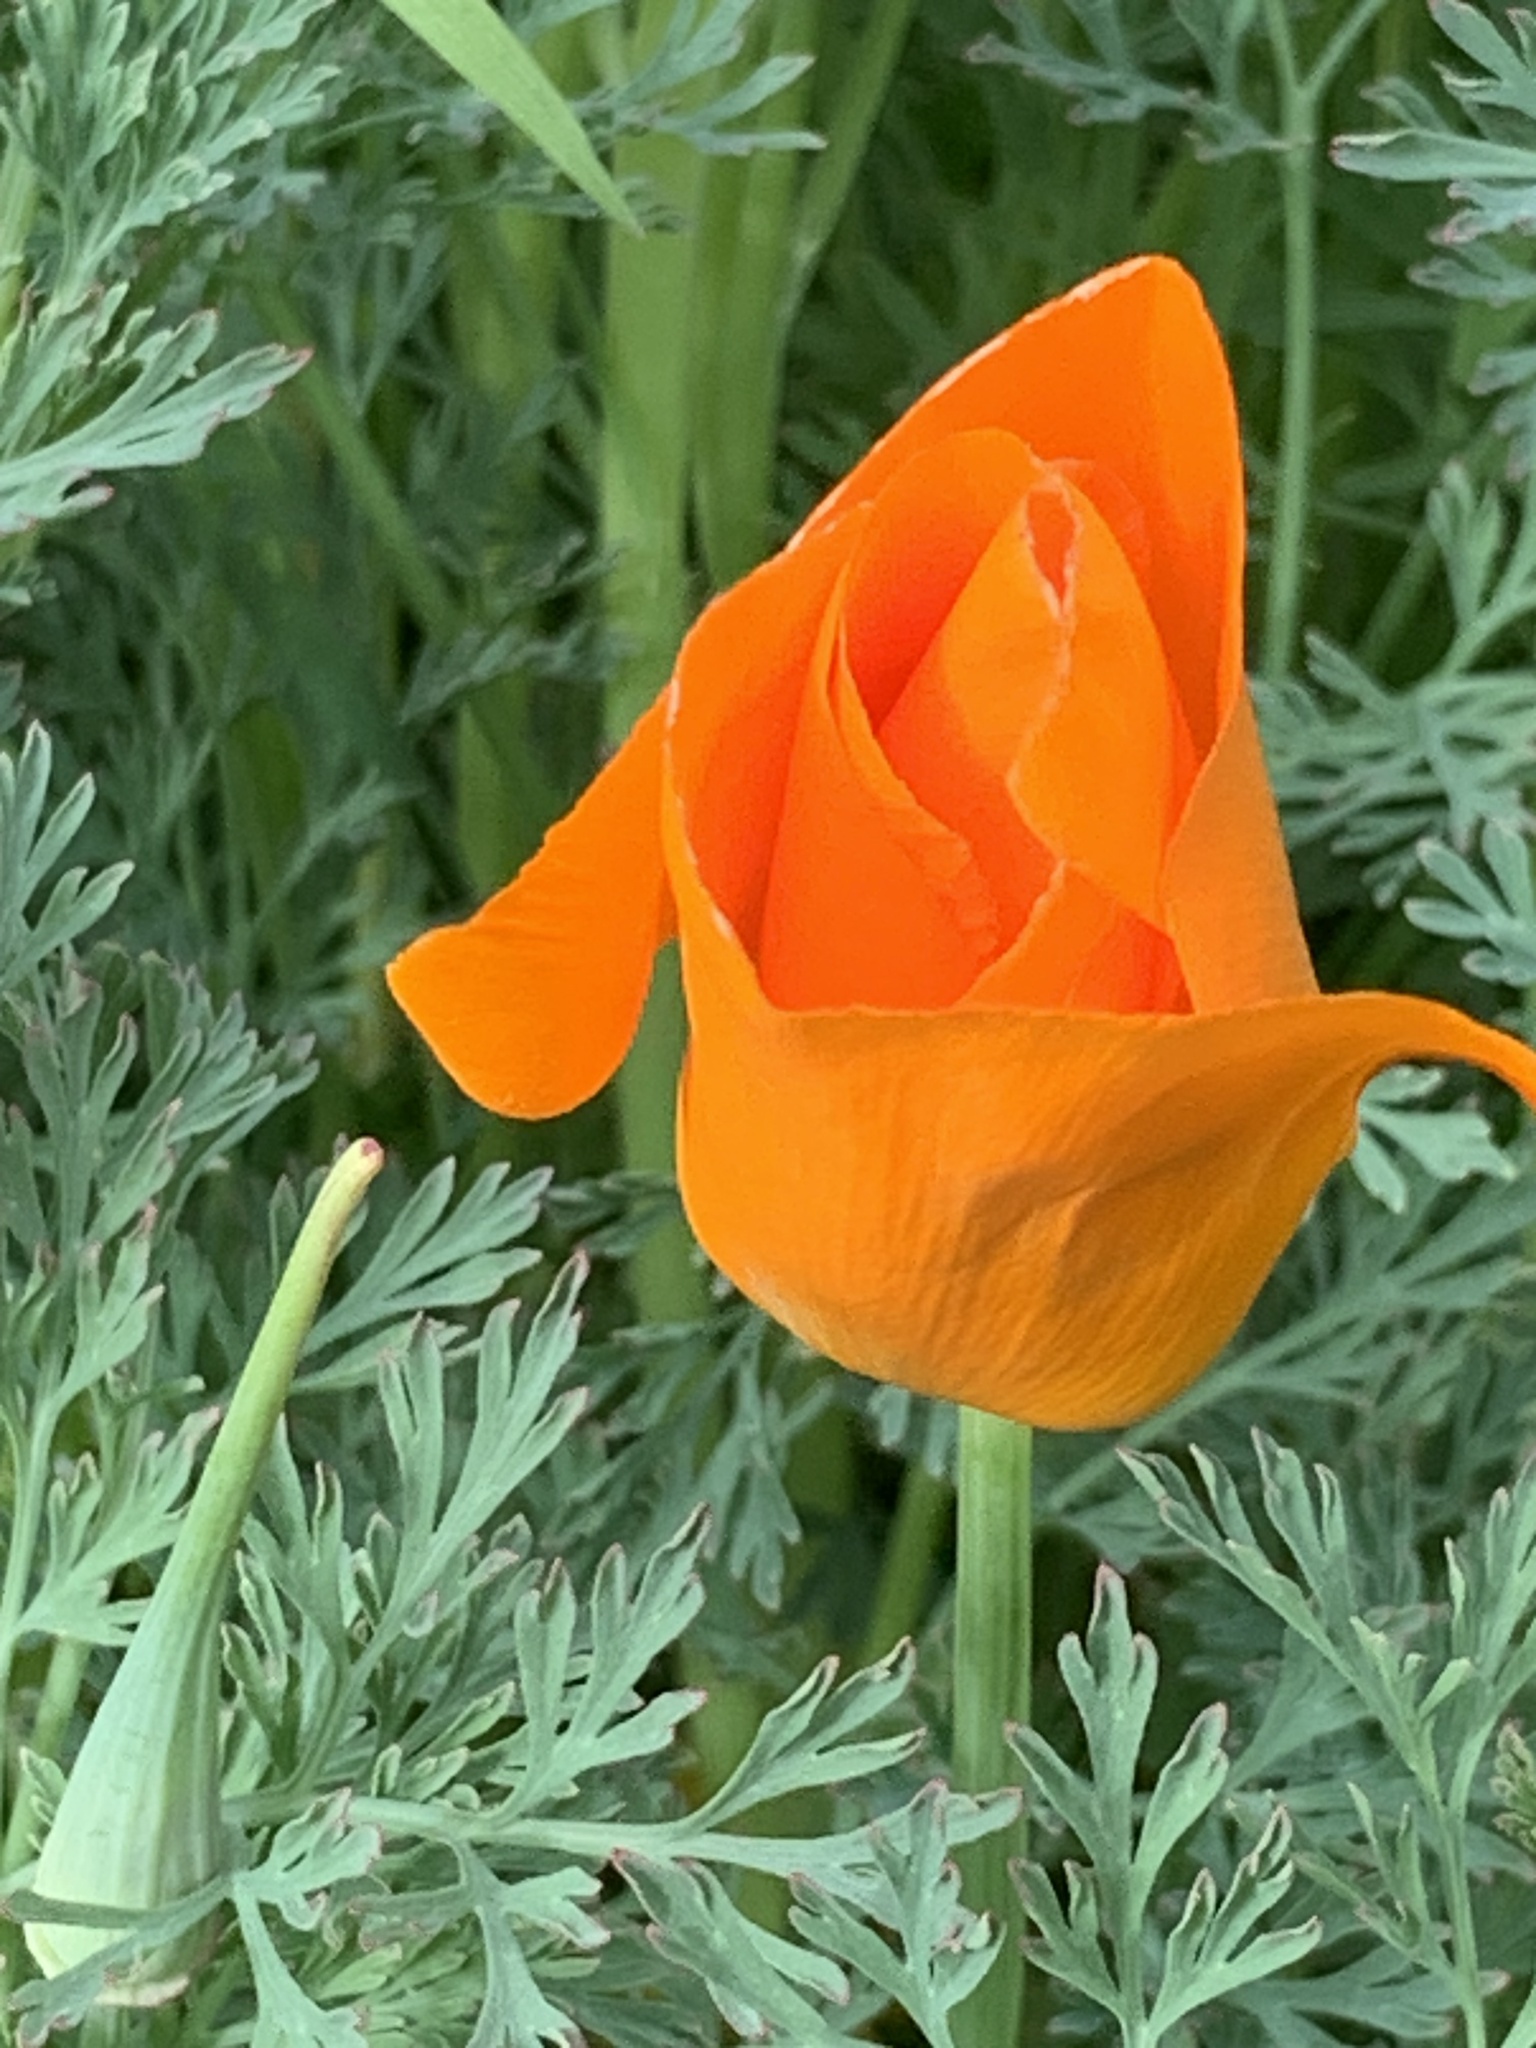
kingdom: Plantae
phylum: Tracheophyta
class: Magnoliopsida
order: Ranunculales
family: Papaveraceae
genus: Eschscholzia
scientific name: Eschscholzia californica
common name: California poppy
